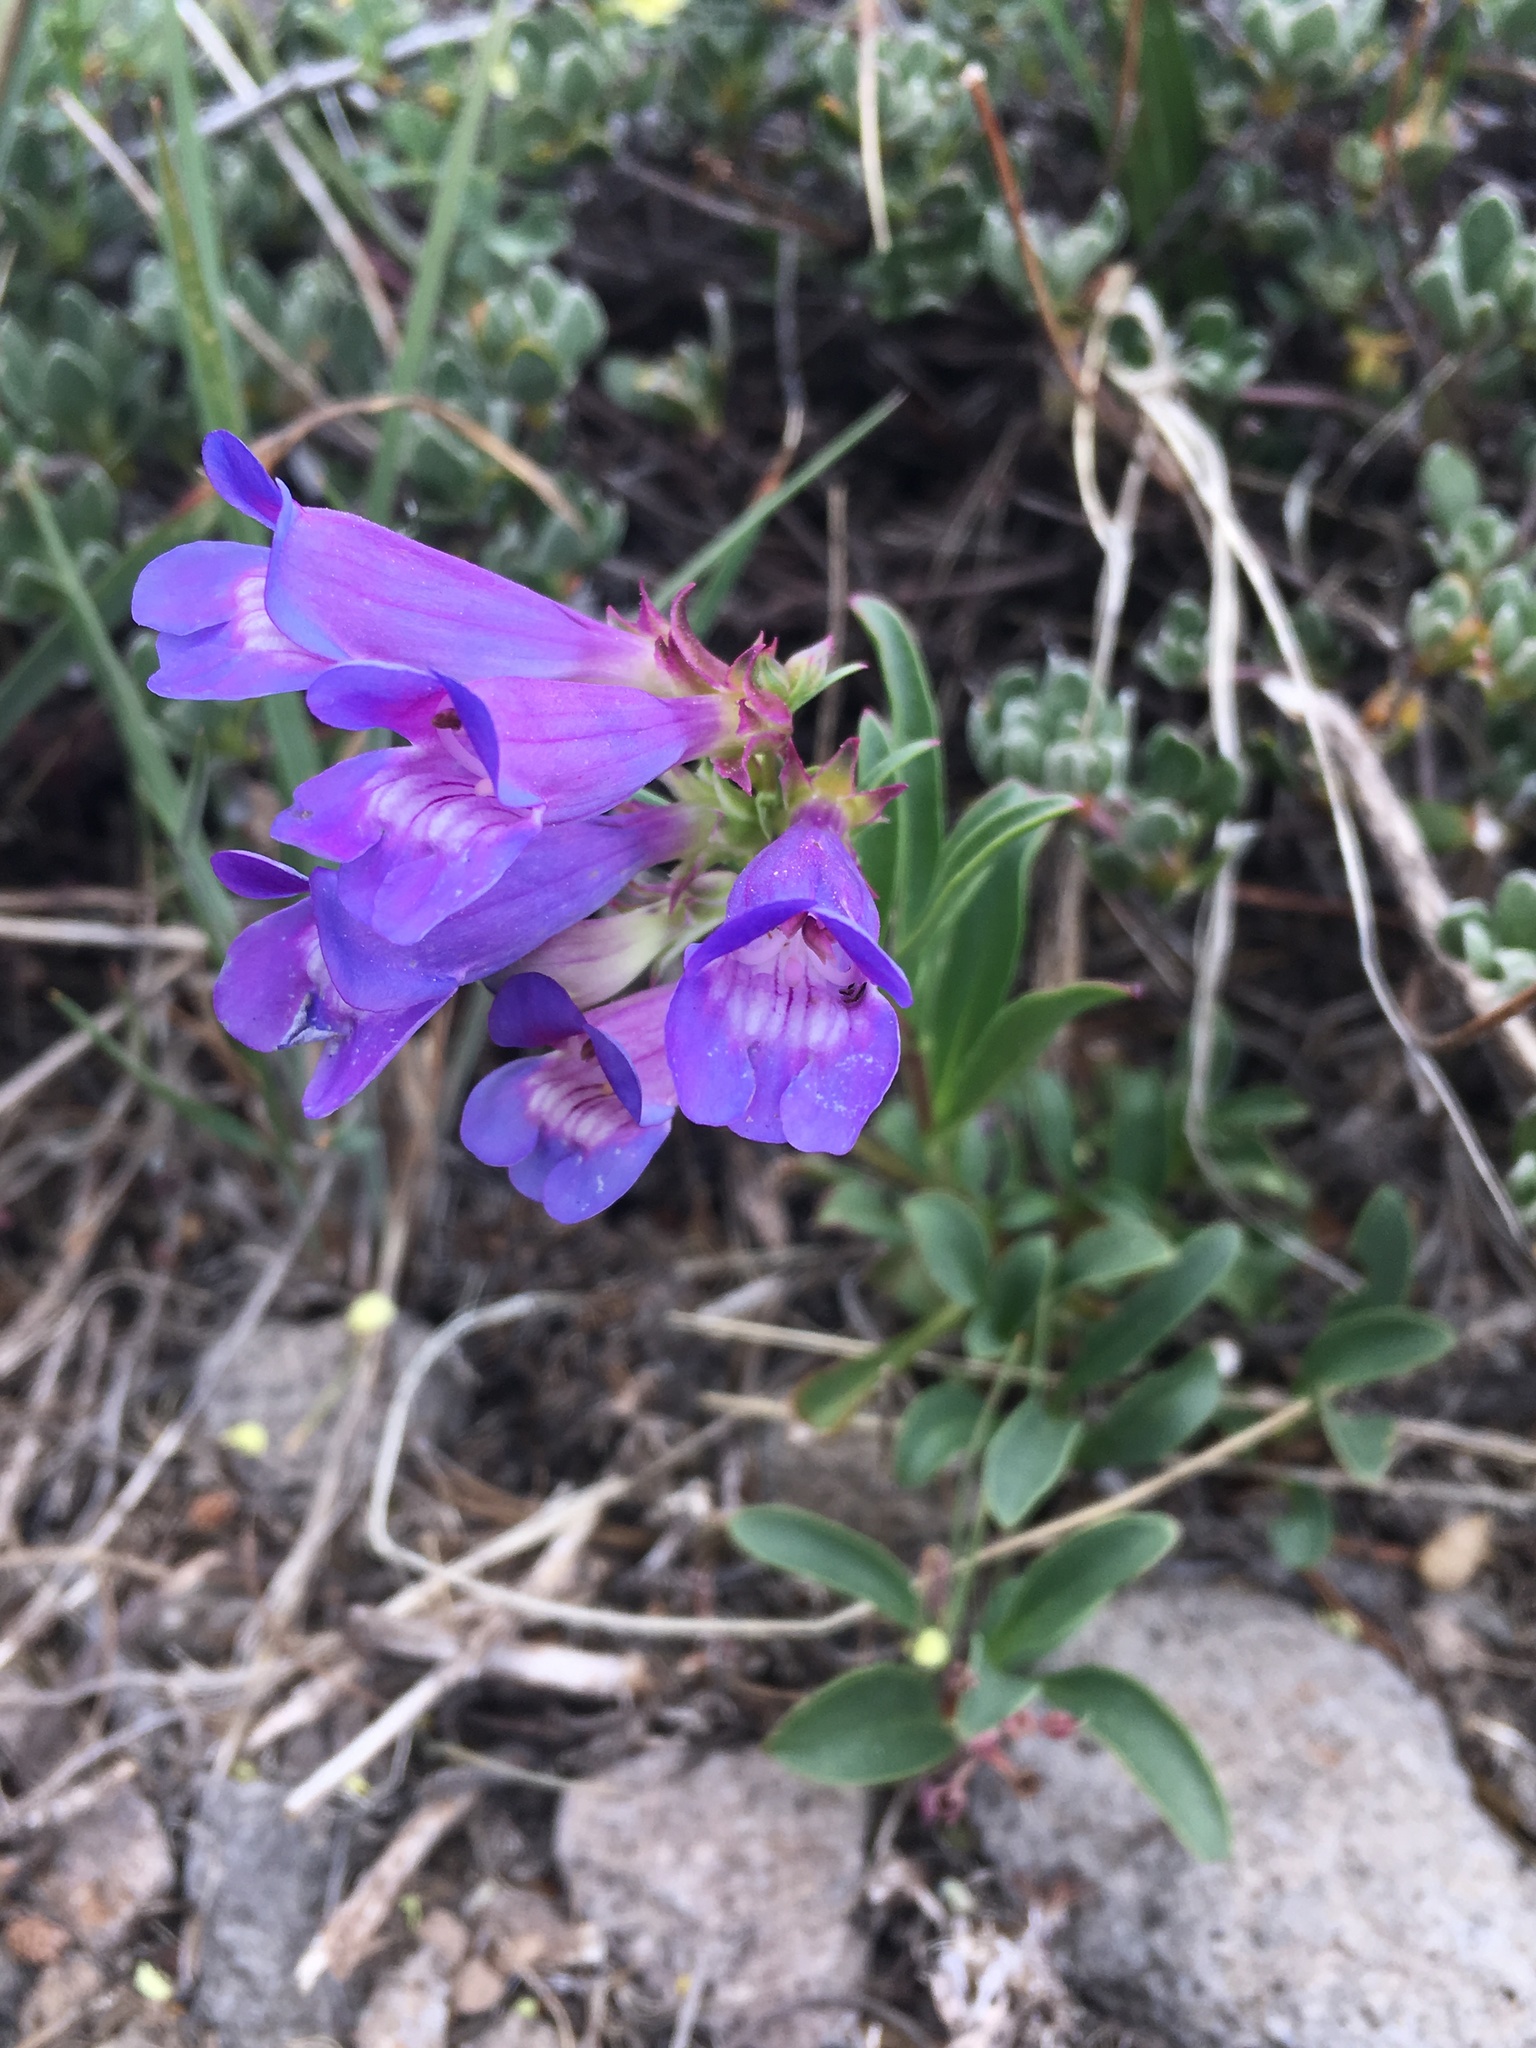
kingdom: Plantae
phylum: Tracheophyta
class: Magnoliopsida
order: Lamiales
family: Plantaginaceae
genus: Penstemon
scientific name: Penstemon speciosus
